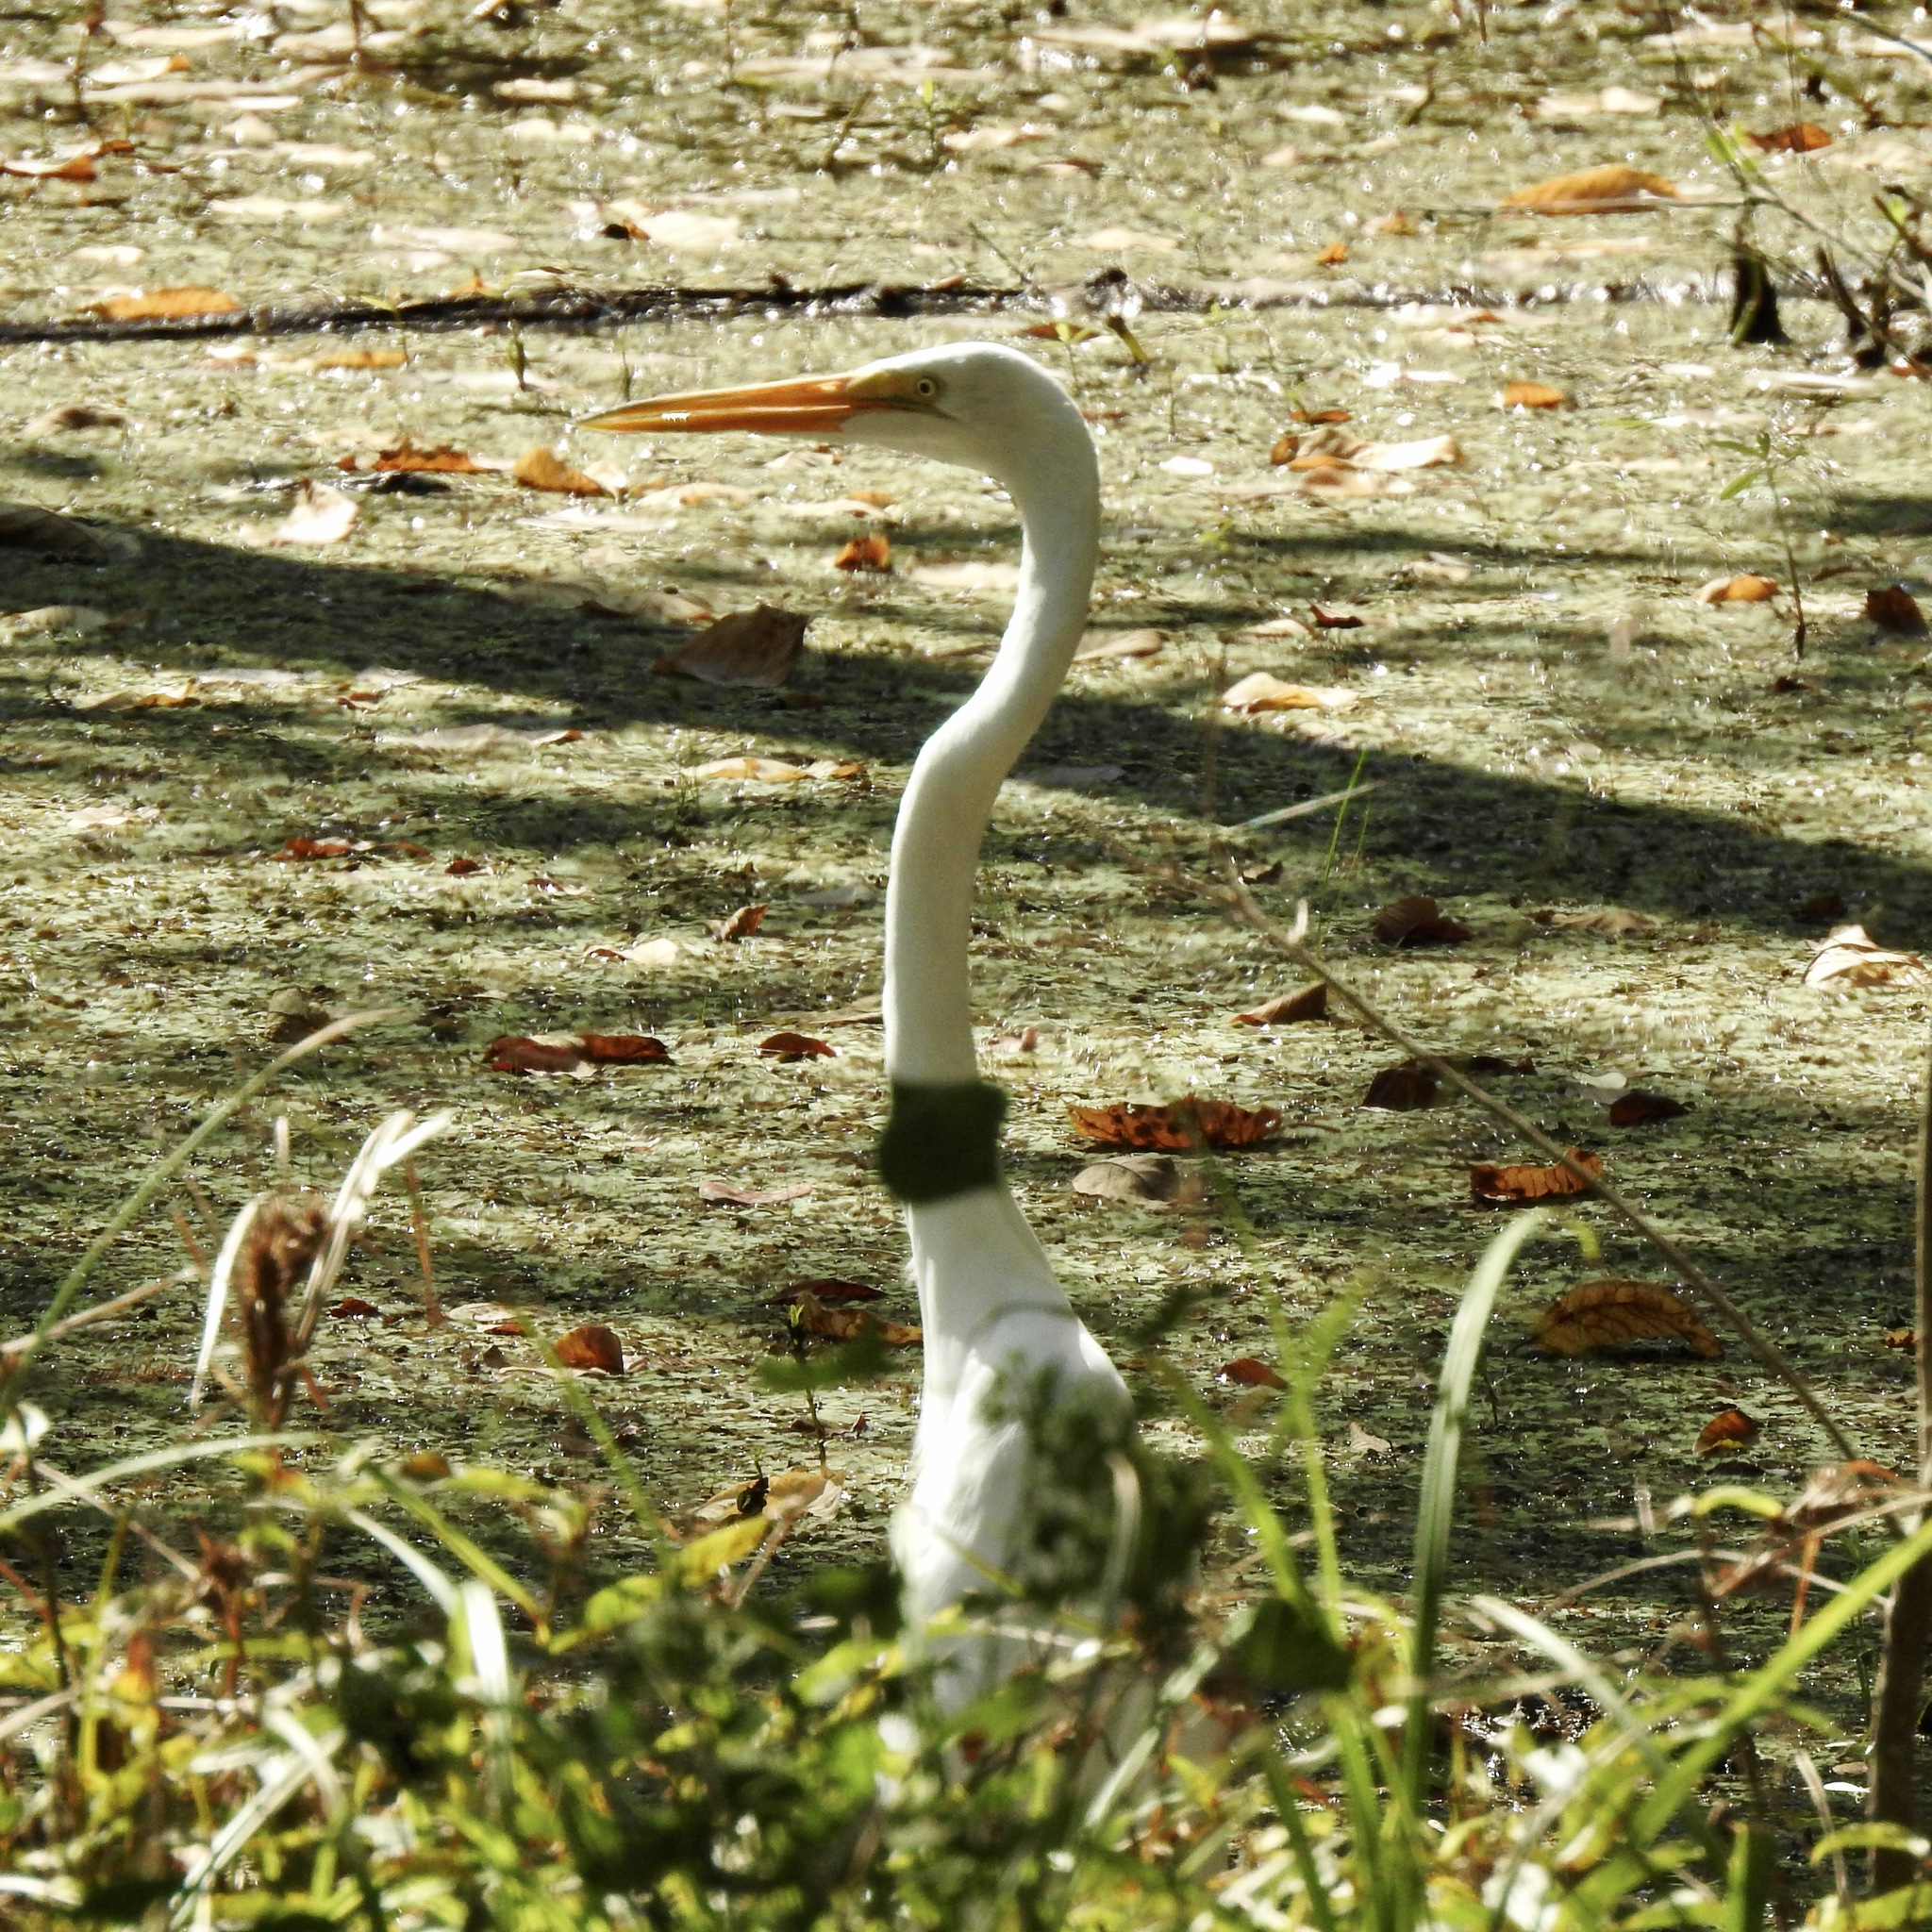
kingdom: Animalia
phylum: Chordata
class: Aves
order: Pelecaniformes
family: Ardeidae
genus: Ardea
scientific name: Ardea alba
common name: Great egret
